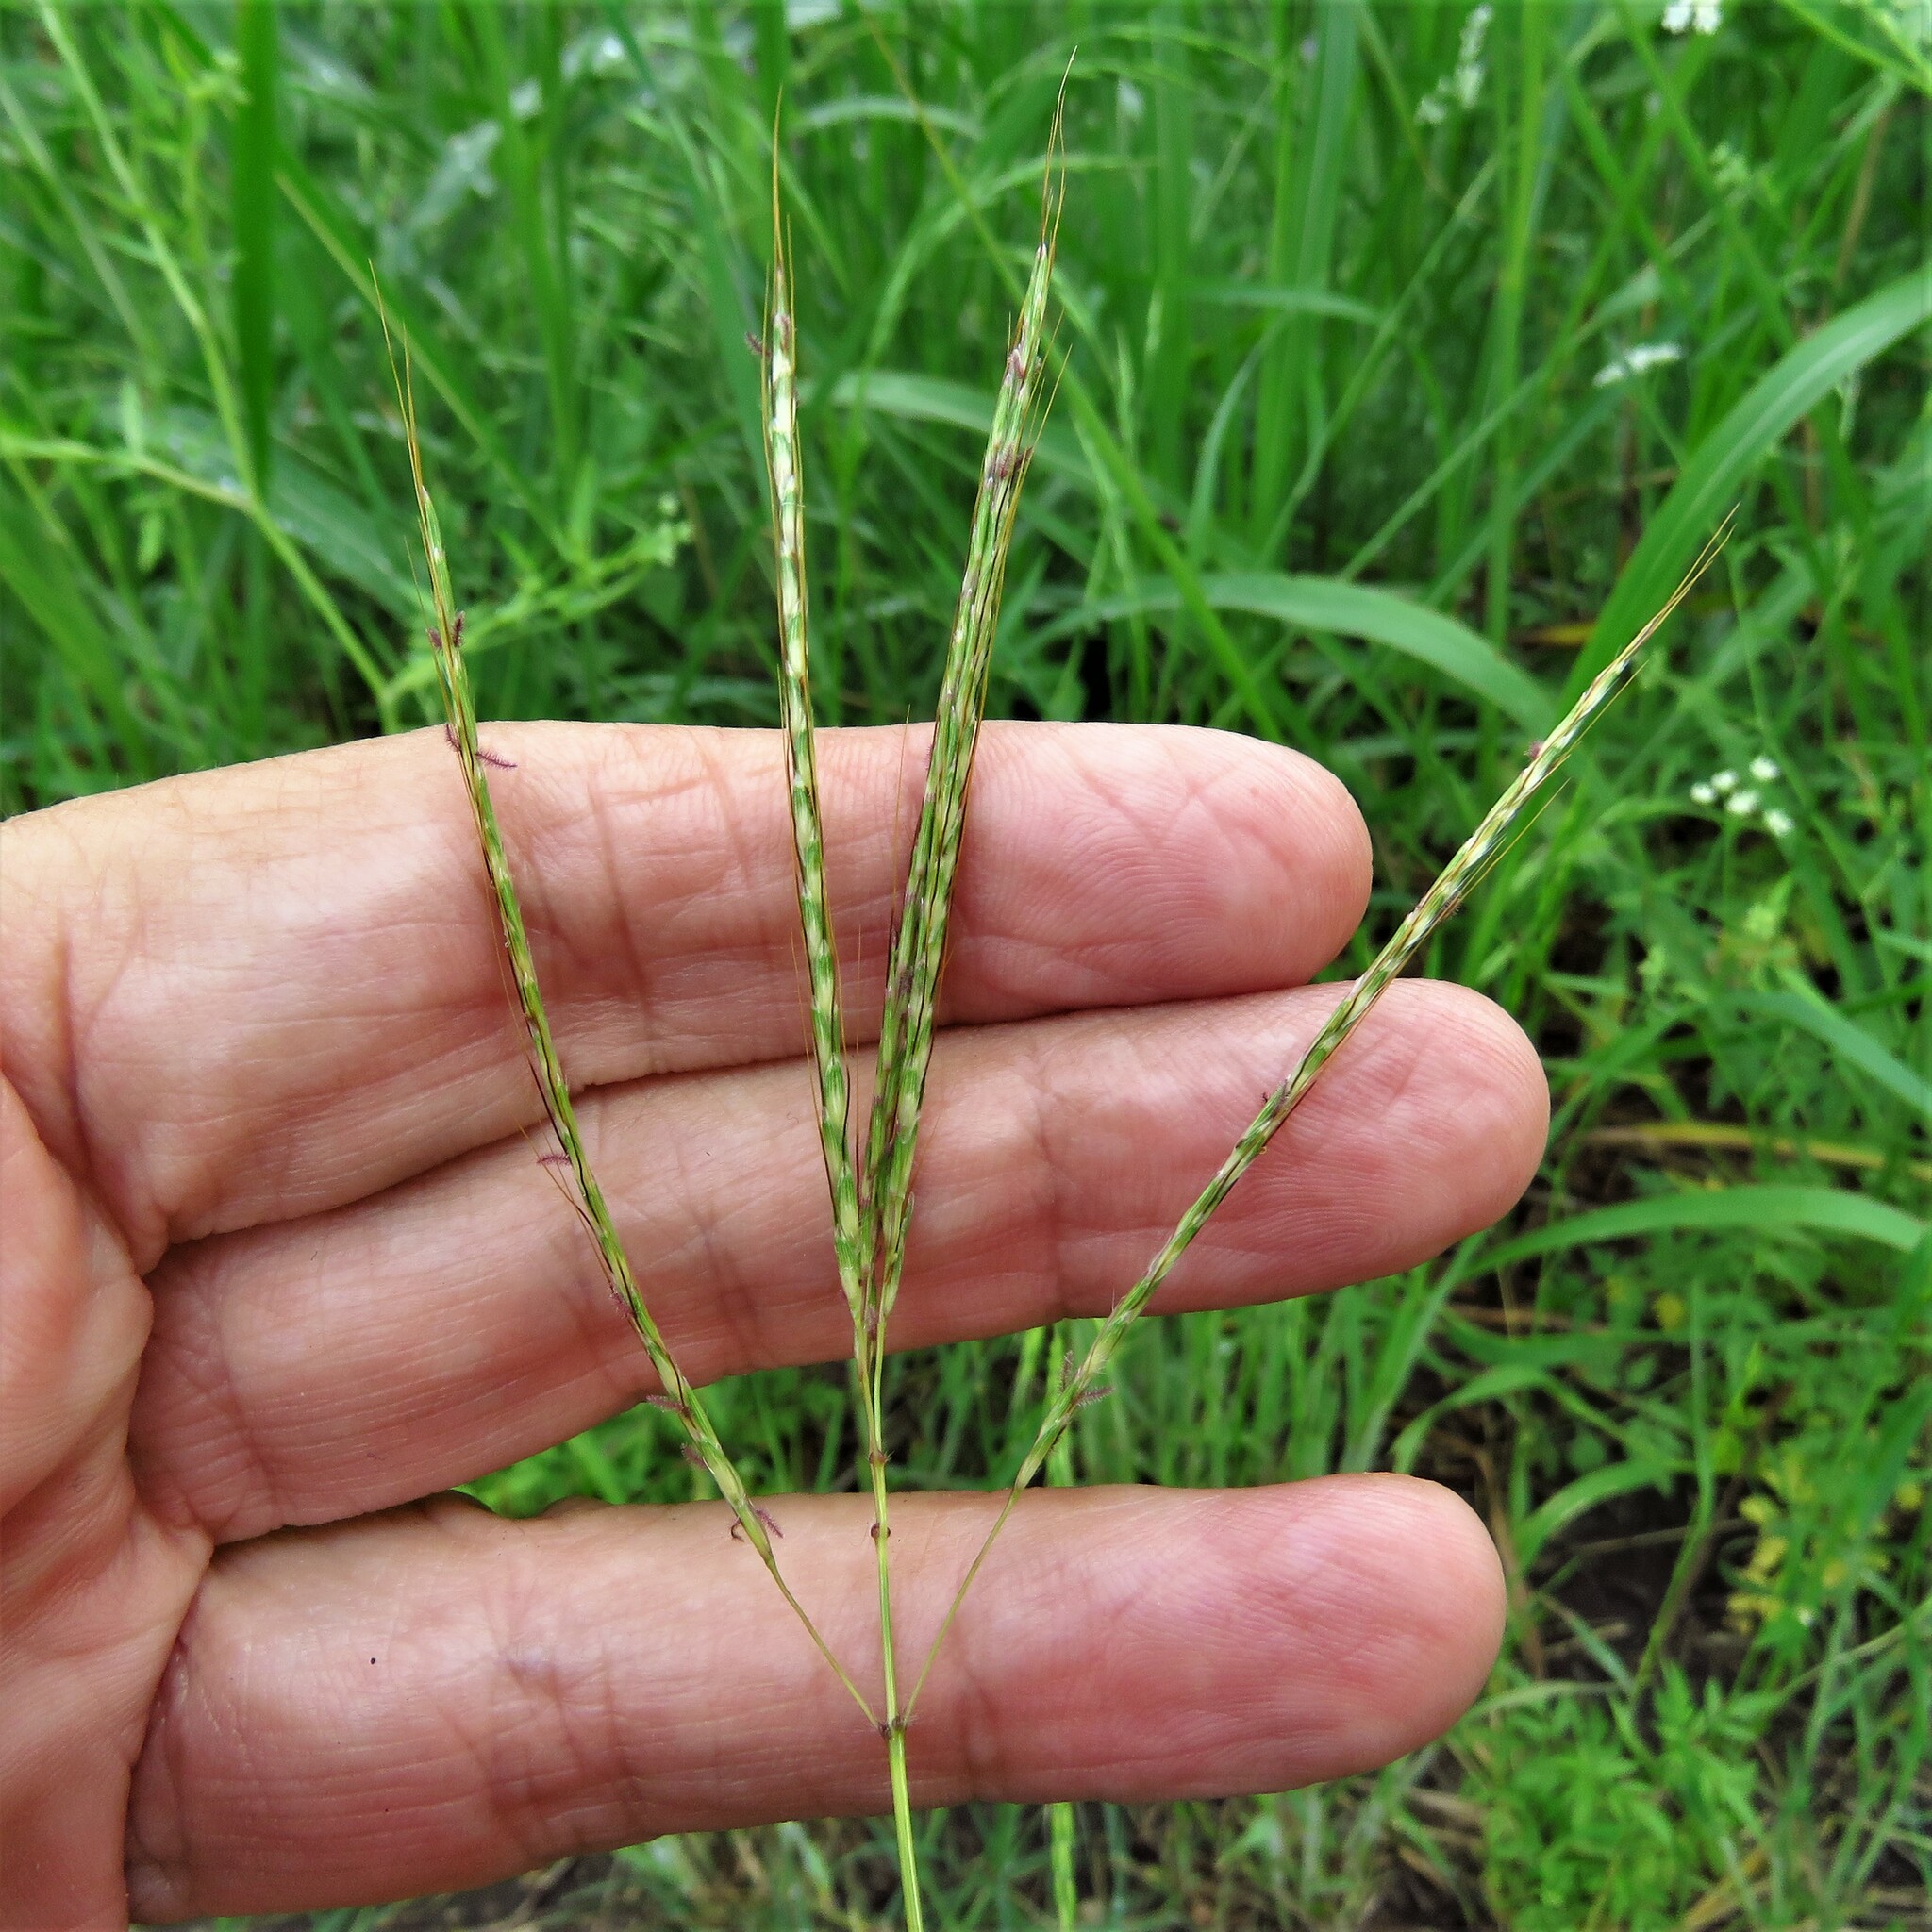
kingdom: Plantae
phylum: Tracheophyta
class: Liliopsida
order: Poales
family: Poaceae
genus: Bothriochloa
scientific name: Bothriochloa ischaemum
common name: Yellow bluestem
